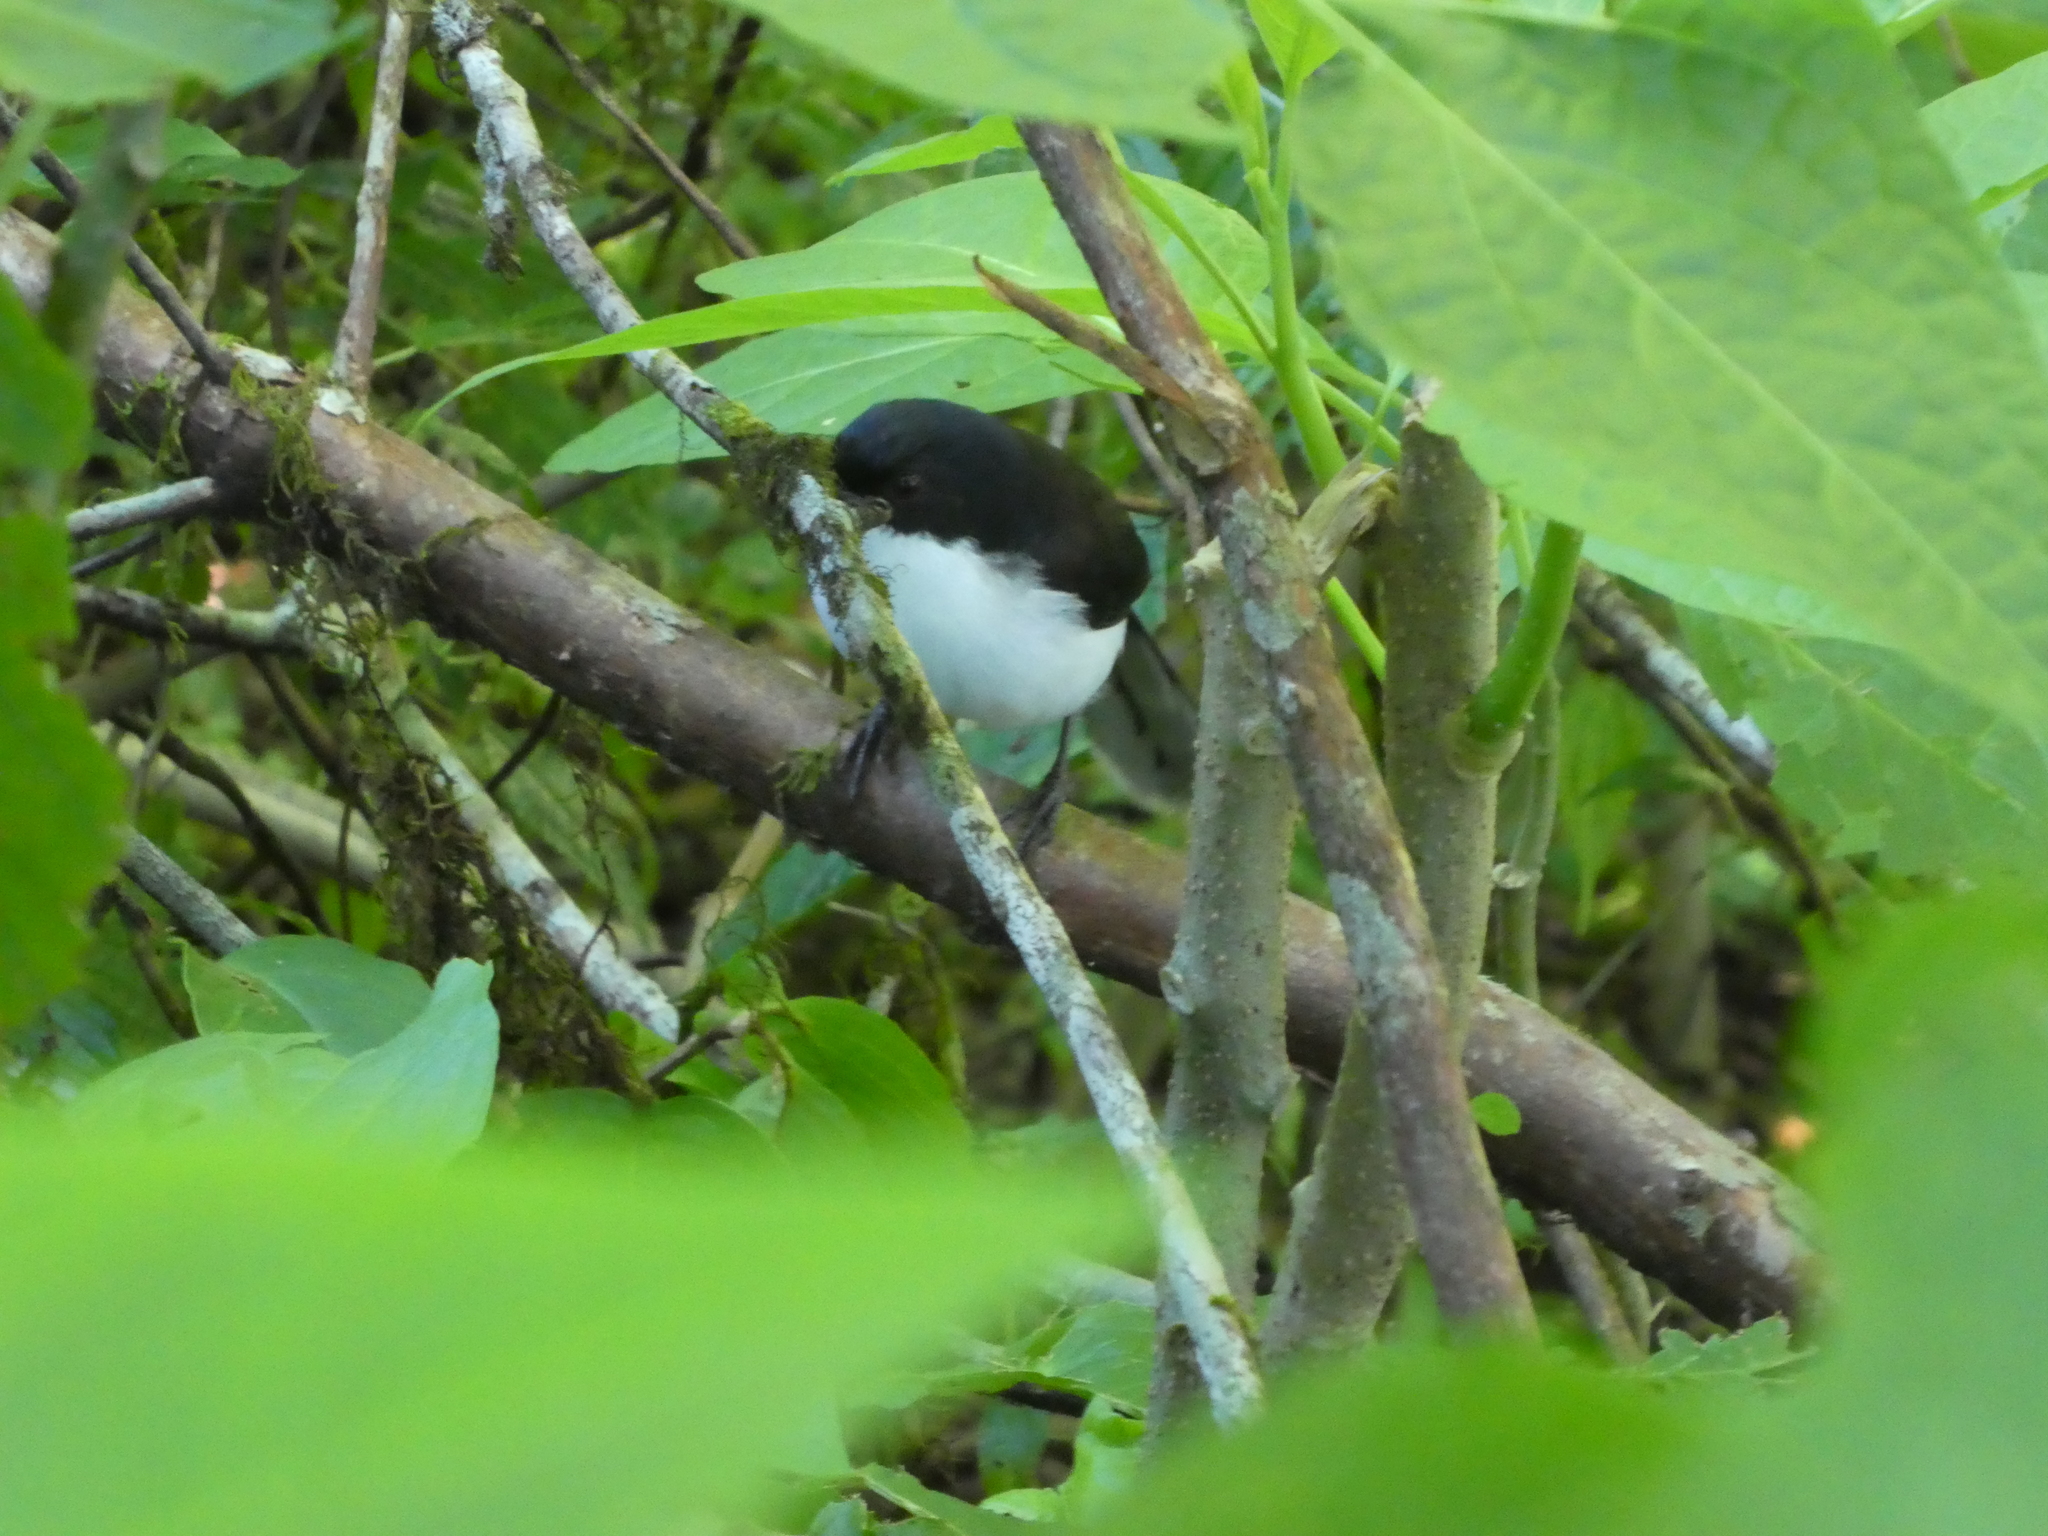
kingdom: Animalia
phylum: Chordata
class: Aves
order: Passeriformes
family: Leiothrichidae
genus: Heterophasia
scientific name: Heterophasia melanoleuca
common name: Dark-backed sibia
